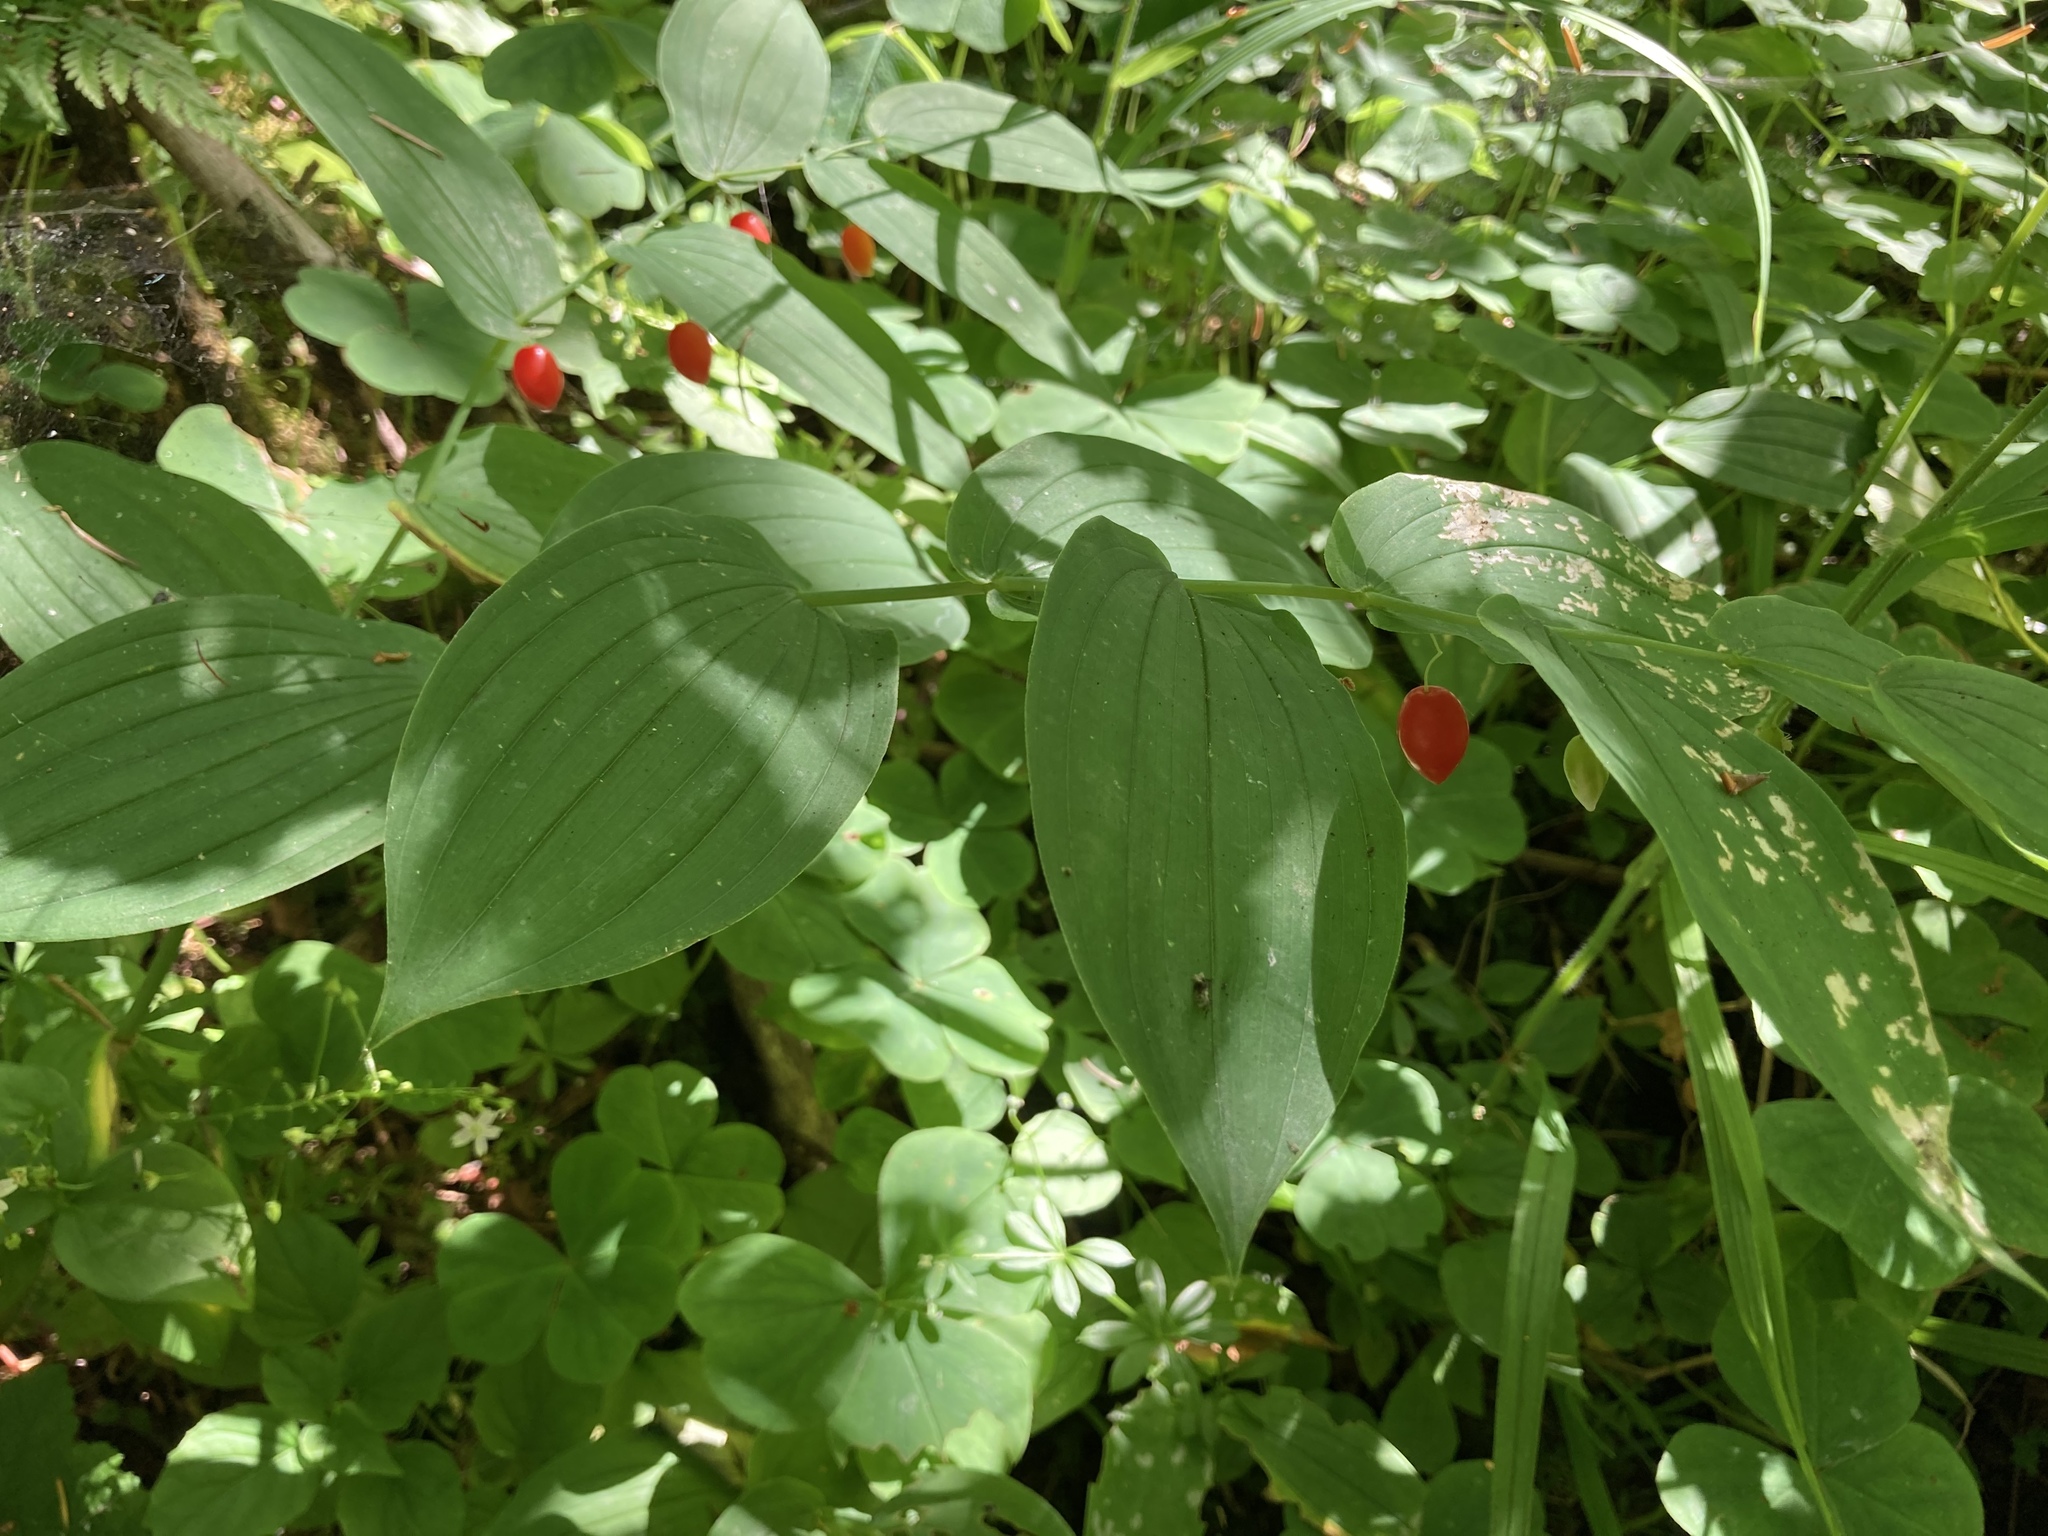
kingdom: Plantae
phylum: Tracheophyta
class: Liliopsida
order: Liliales
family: Liliaceae
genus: Streptopus
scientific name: Streptopus amplexifolius
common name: Clasp twisted stalk
